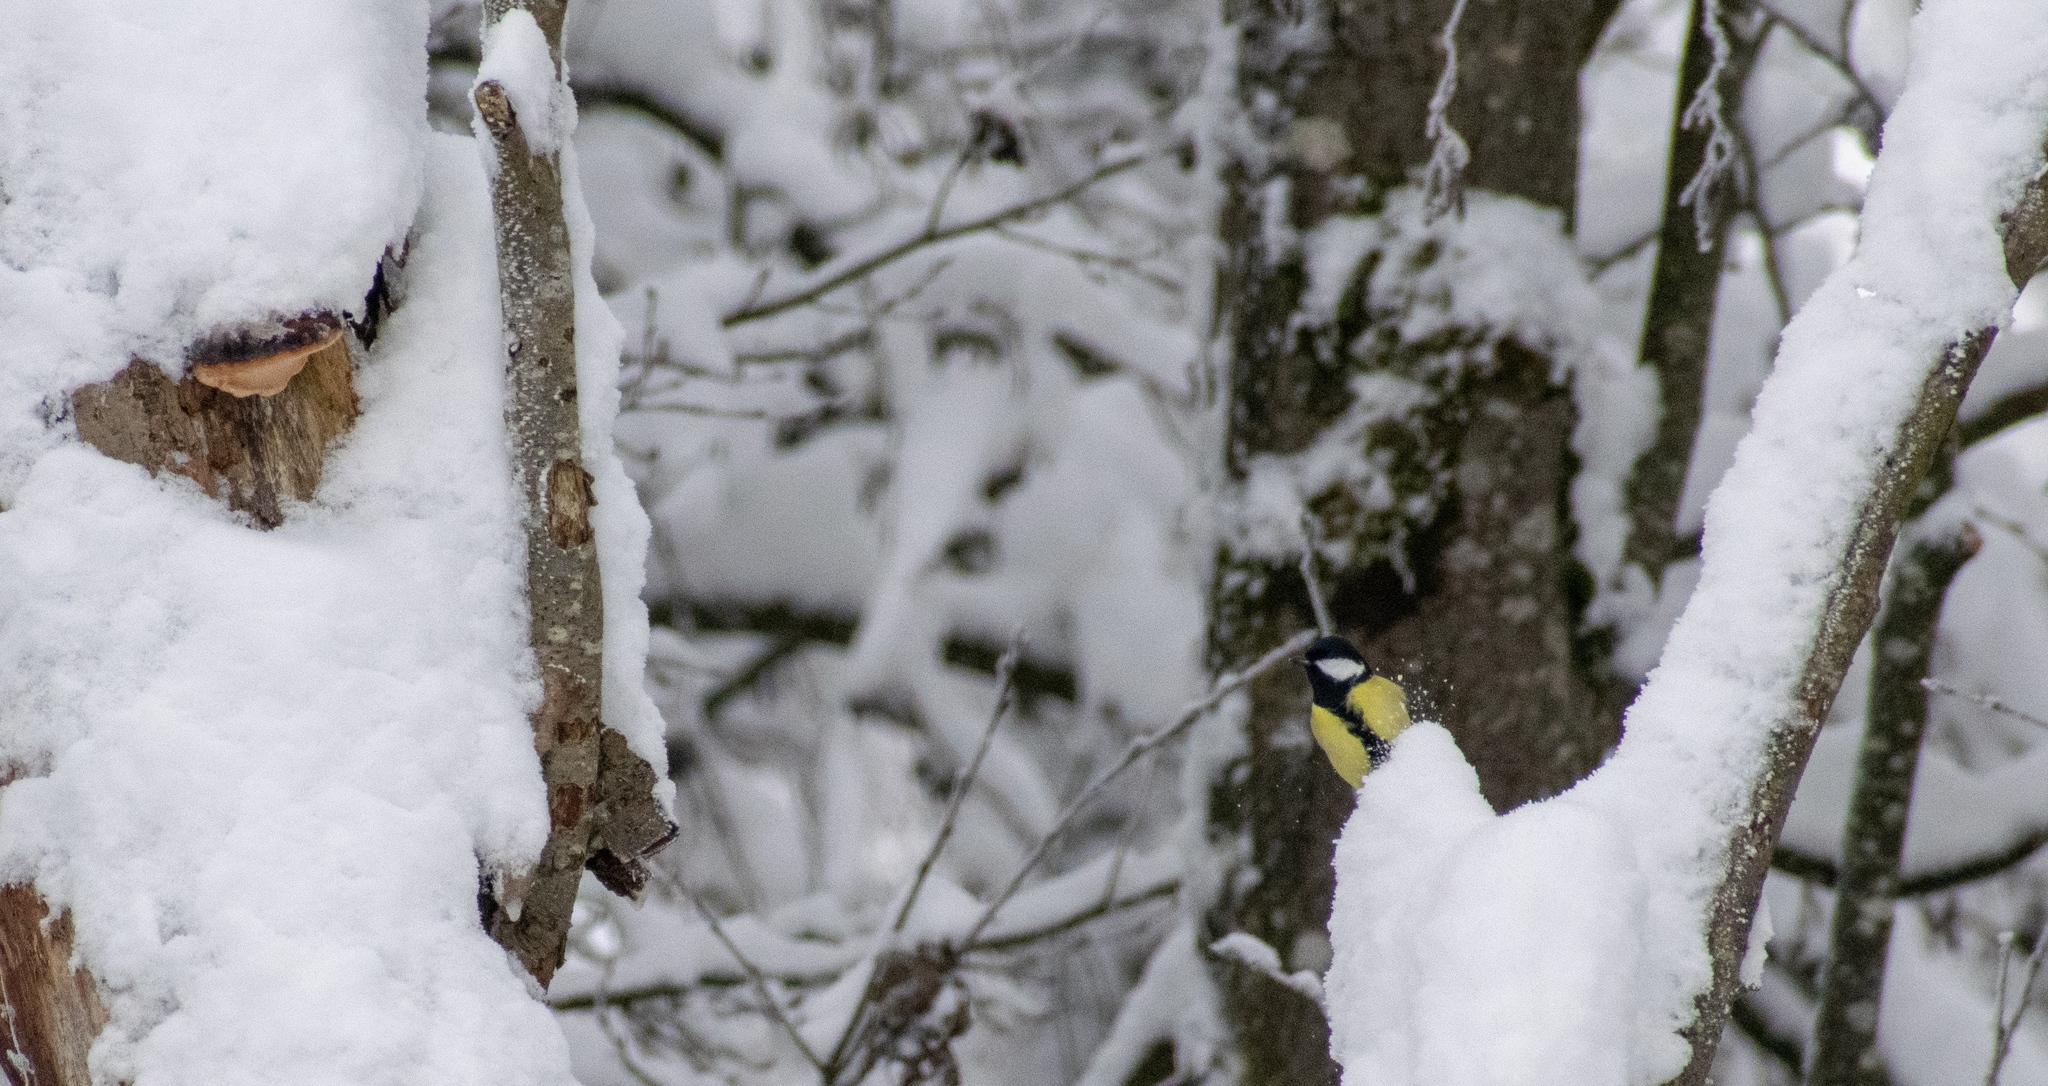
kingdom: Animalia
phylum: Chordata
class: Aves
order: Passeriformes
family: Paridae
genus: Parus
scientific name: Parus major
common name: Great tit
